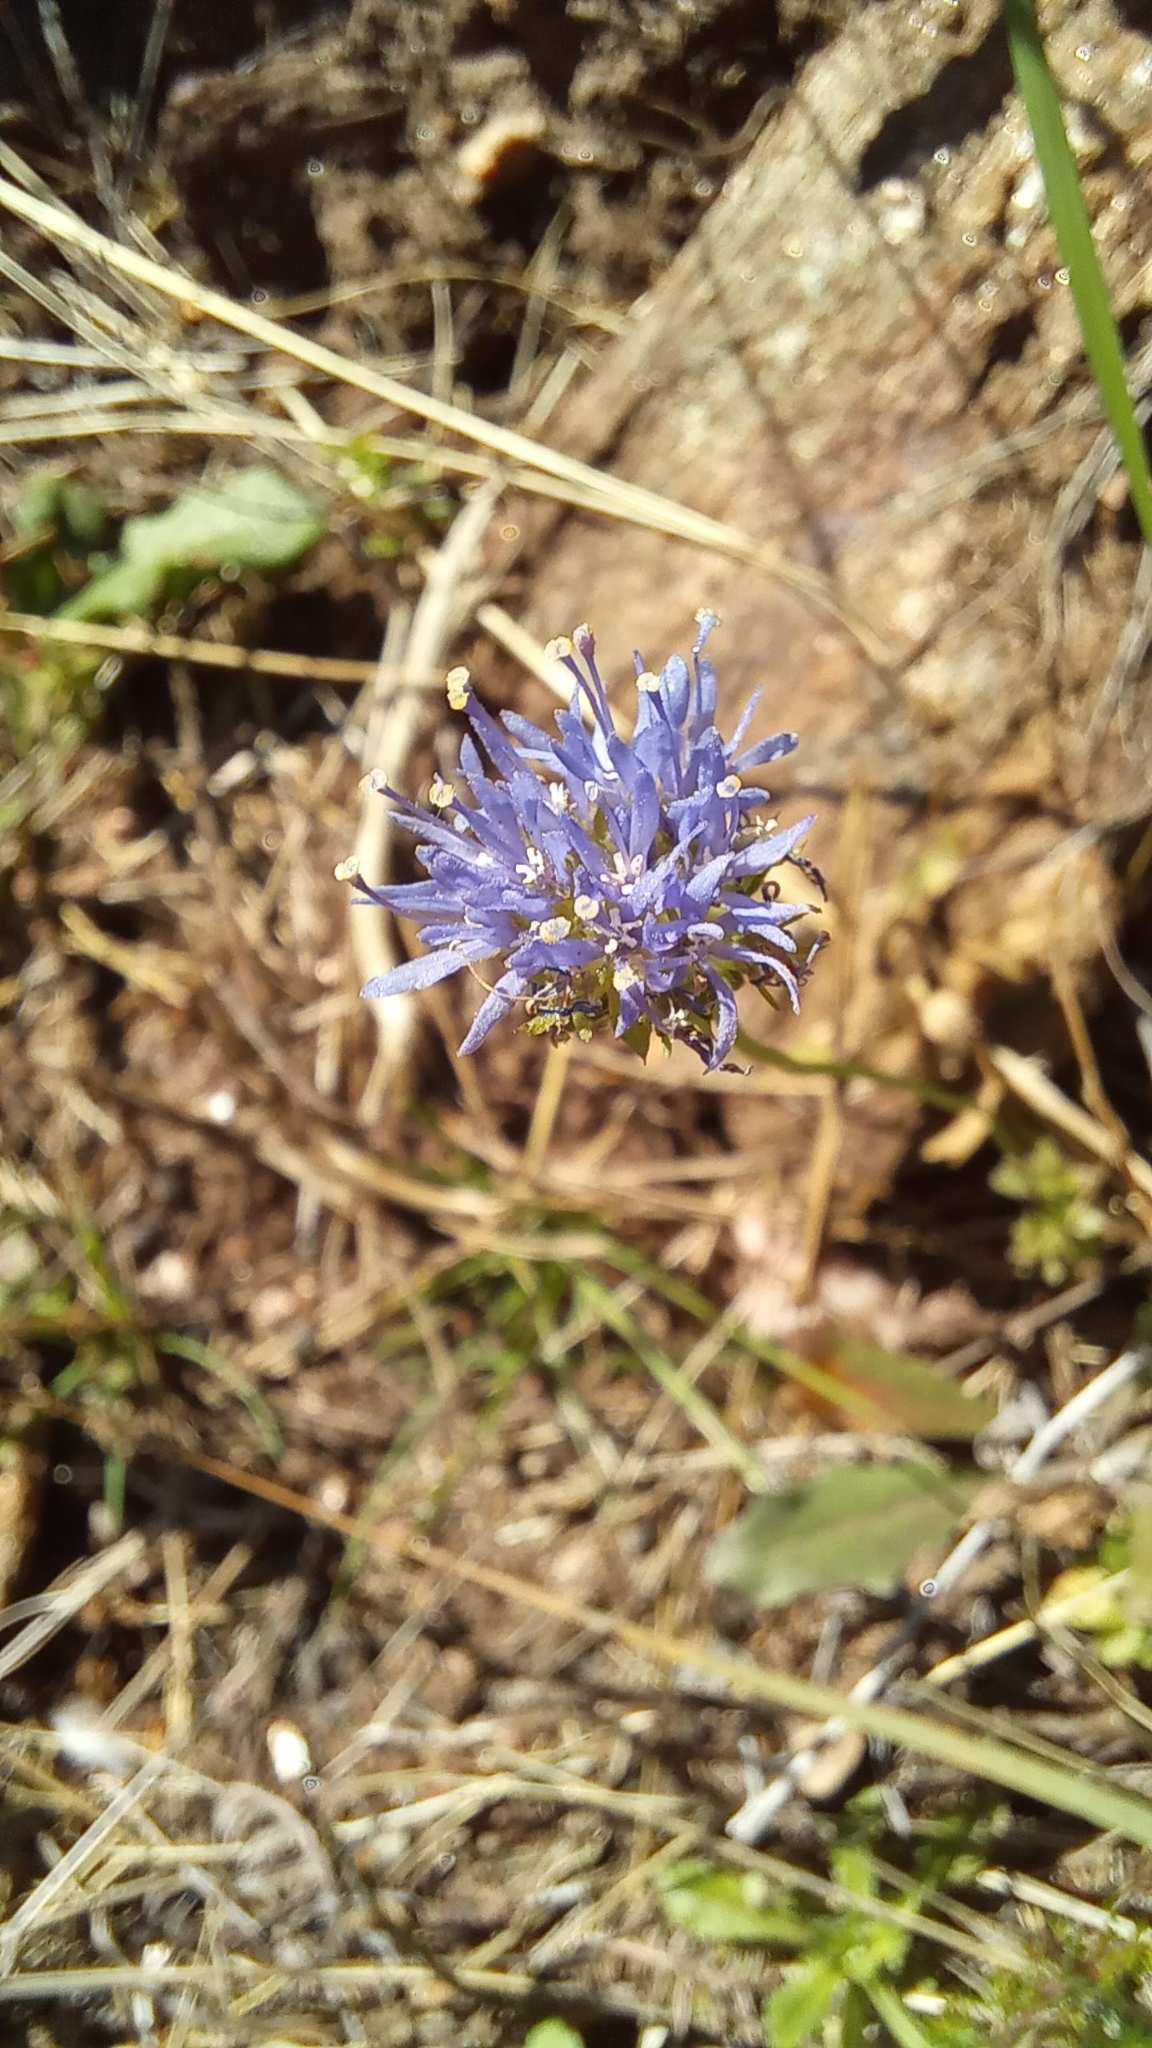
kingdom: Plantae
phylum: Tracheophyta
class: Magnoliopsida
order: Asterales
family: Campanulaceae
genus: Jasione
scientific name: Jasione montana
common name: Sheep's-bit
